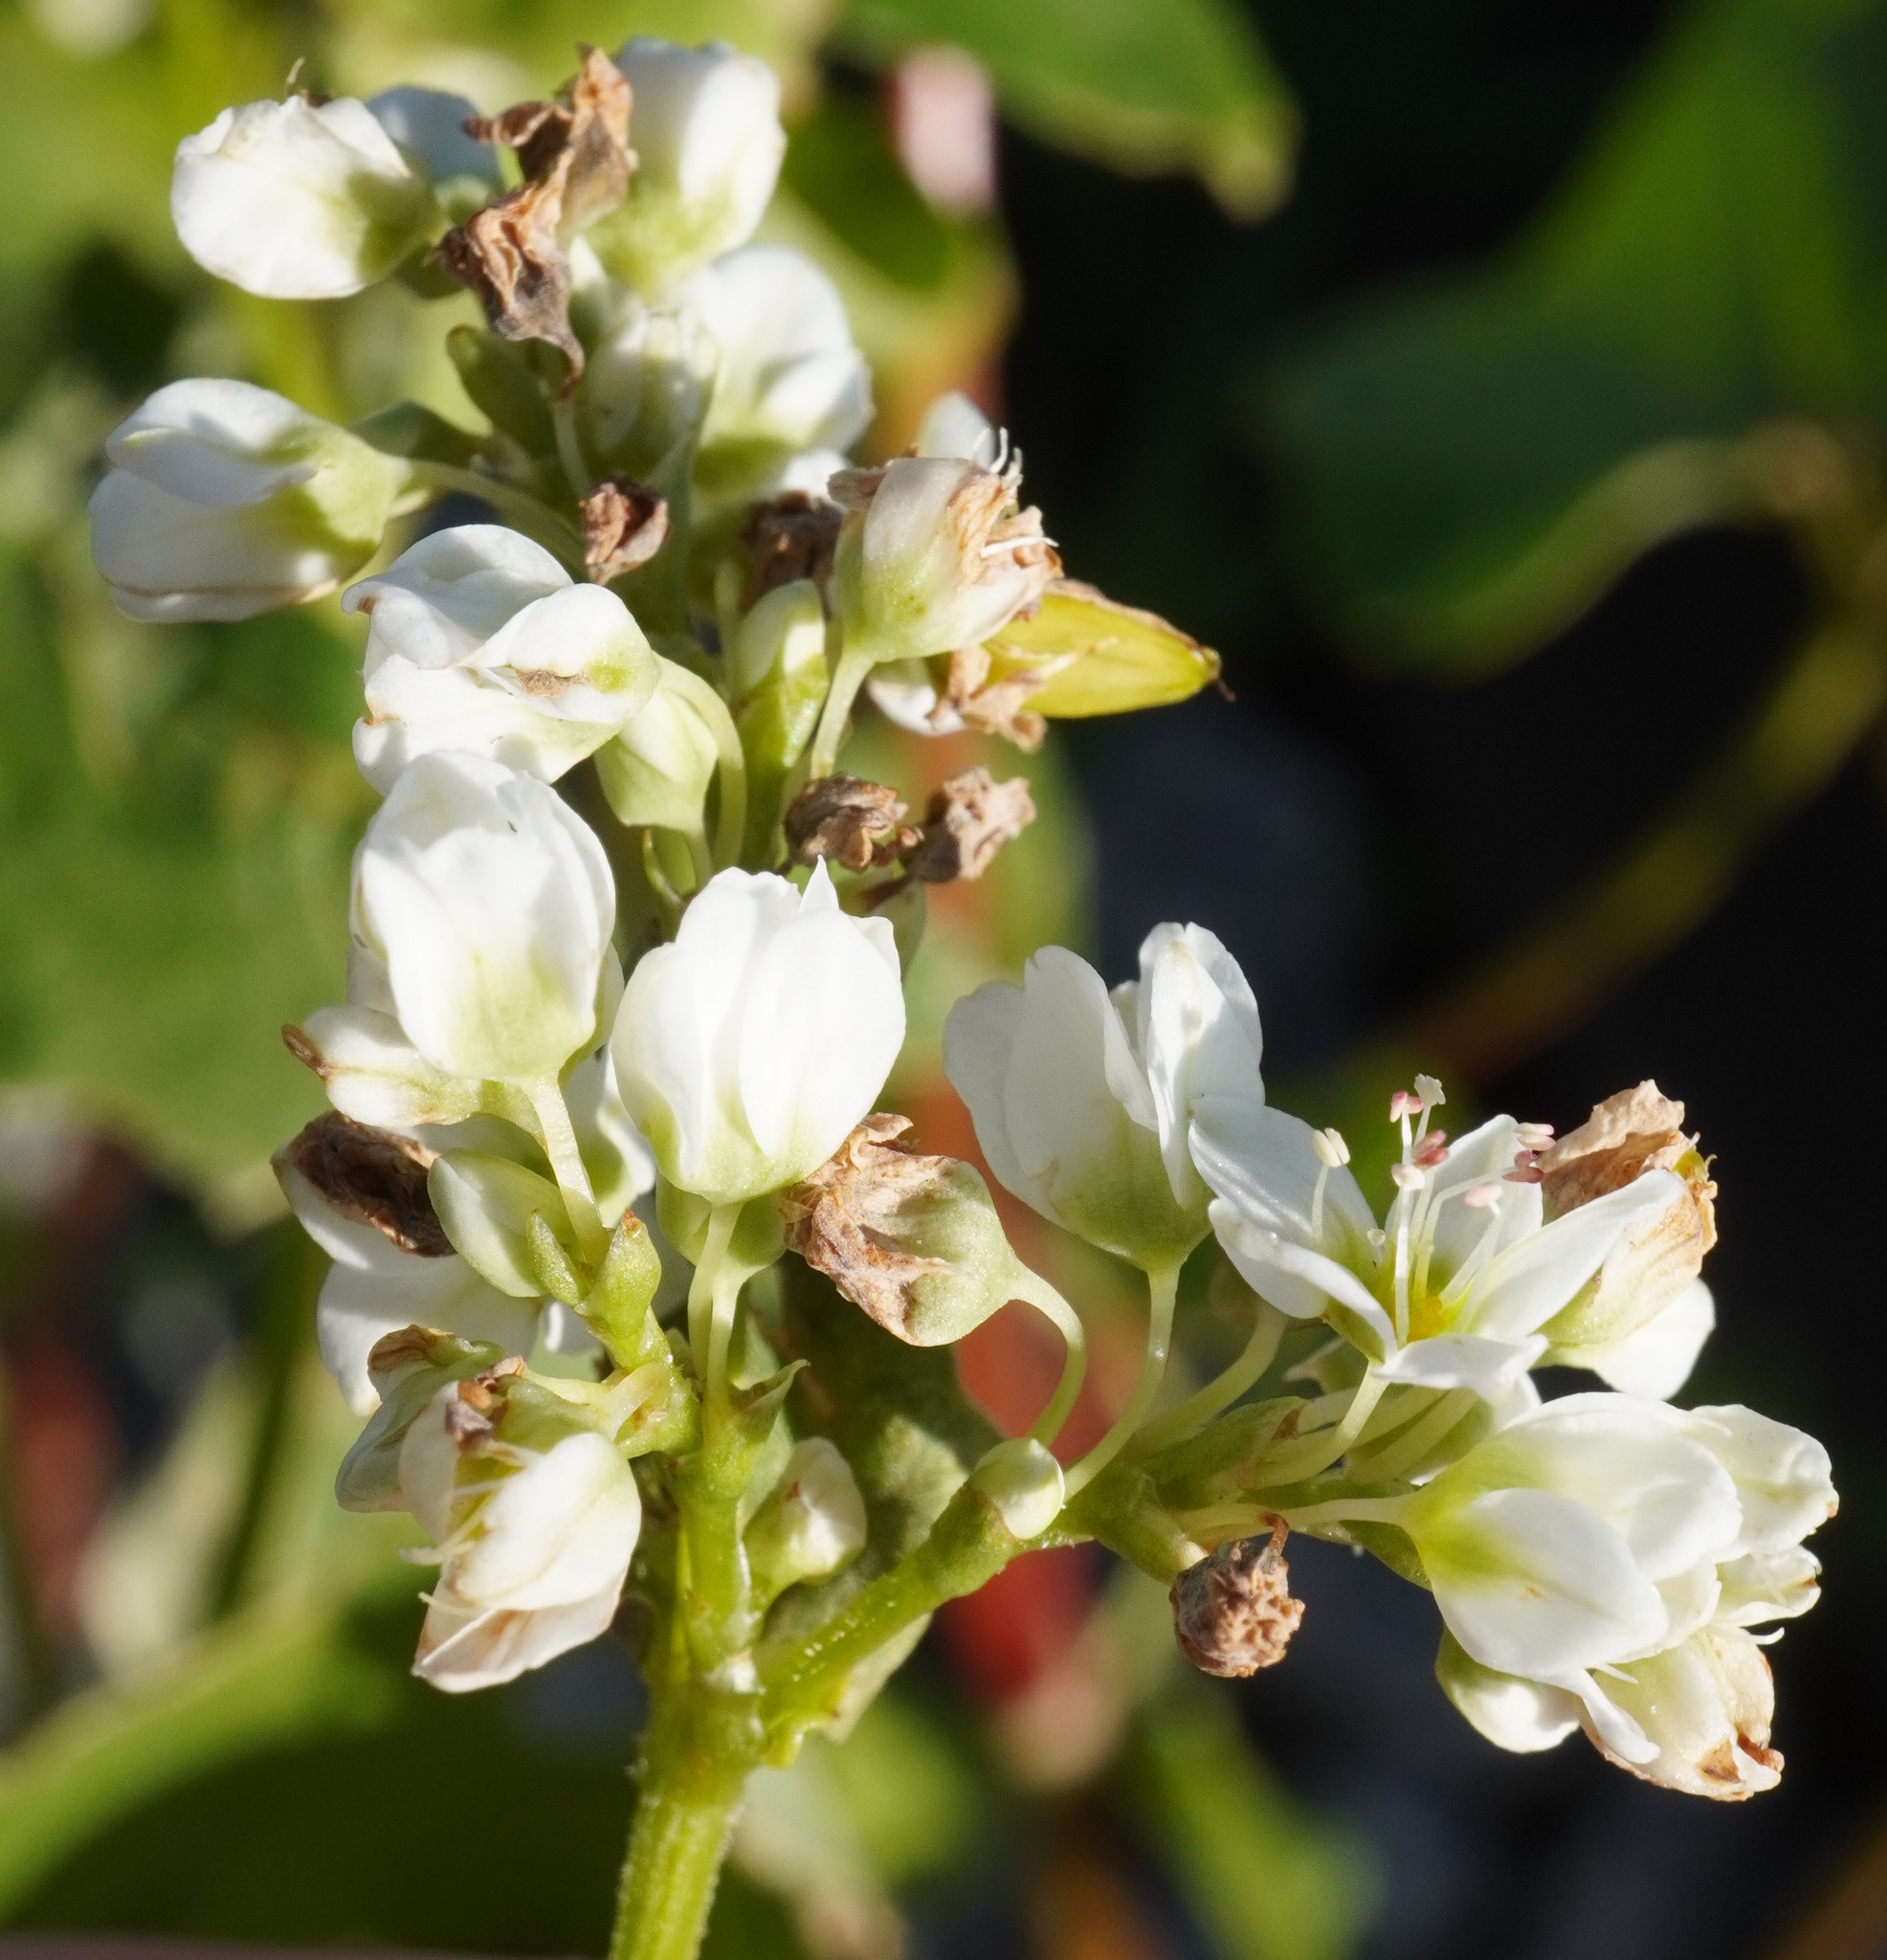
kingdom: Plantae
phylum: Tracheophyta
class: Magnoliopsida
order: Caryophyllales
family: Polygonaceae
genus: Fagopyrum
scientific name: Fagopyrum esculentum
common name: Buckwheat
